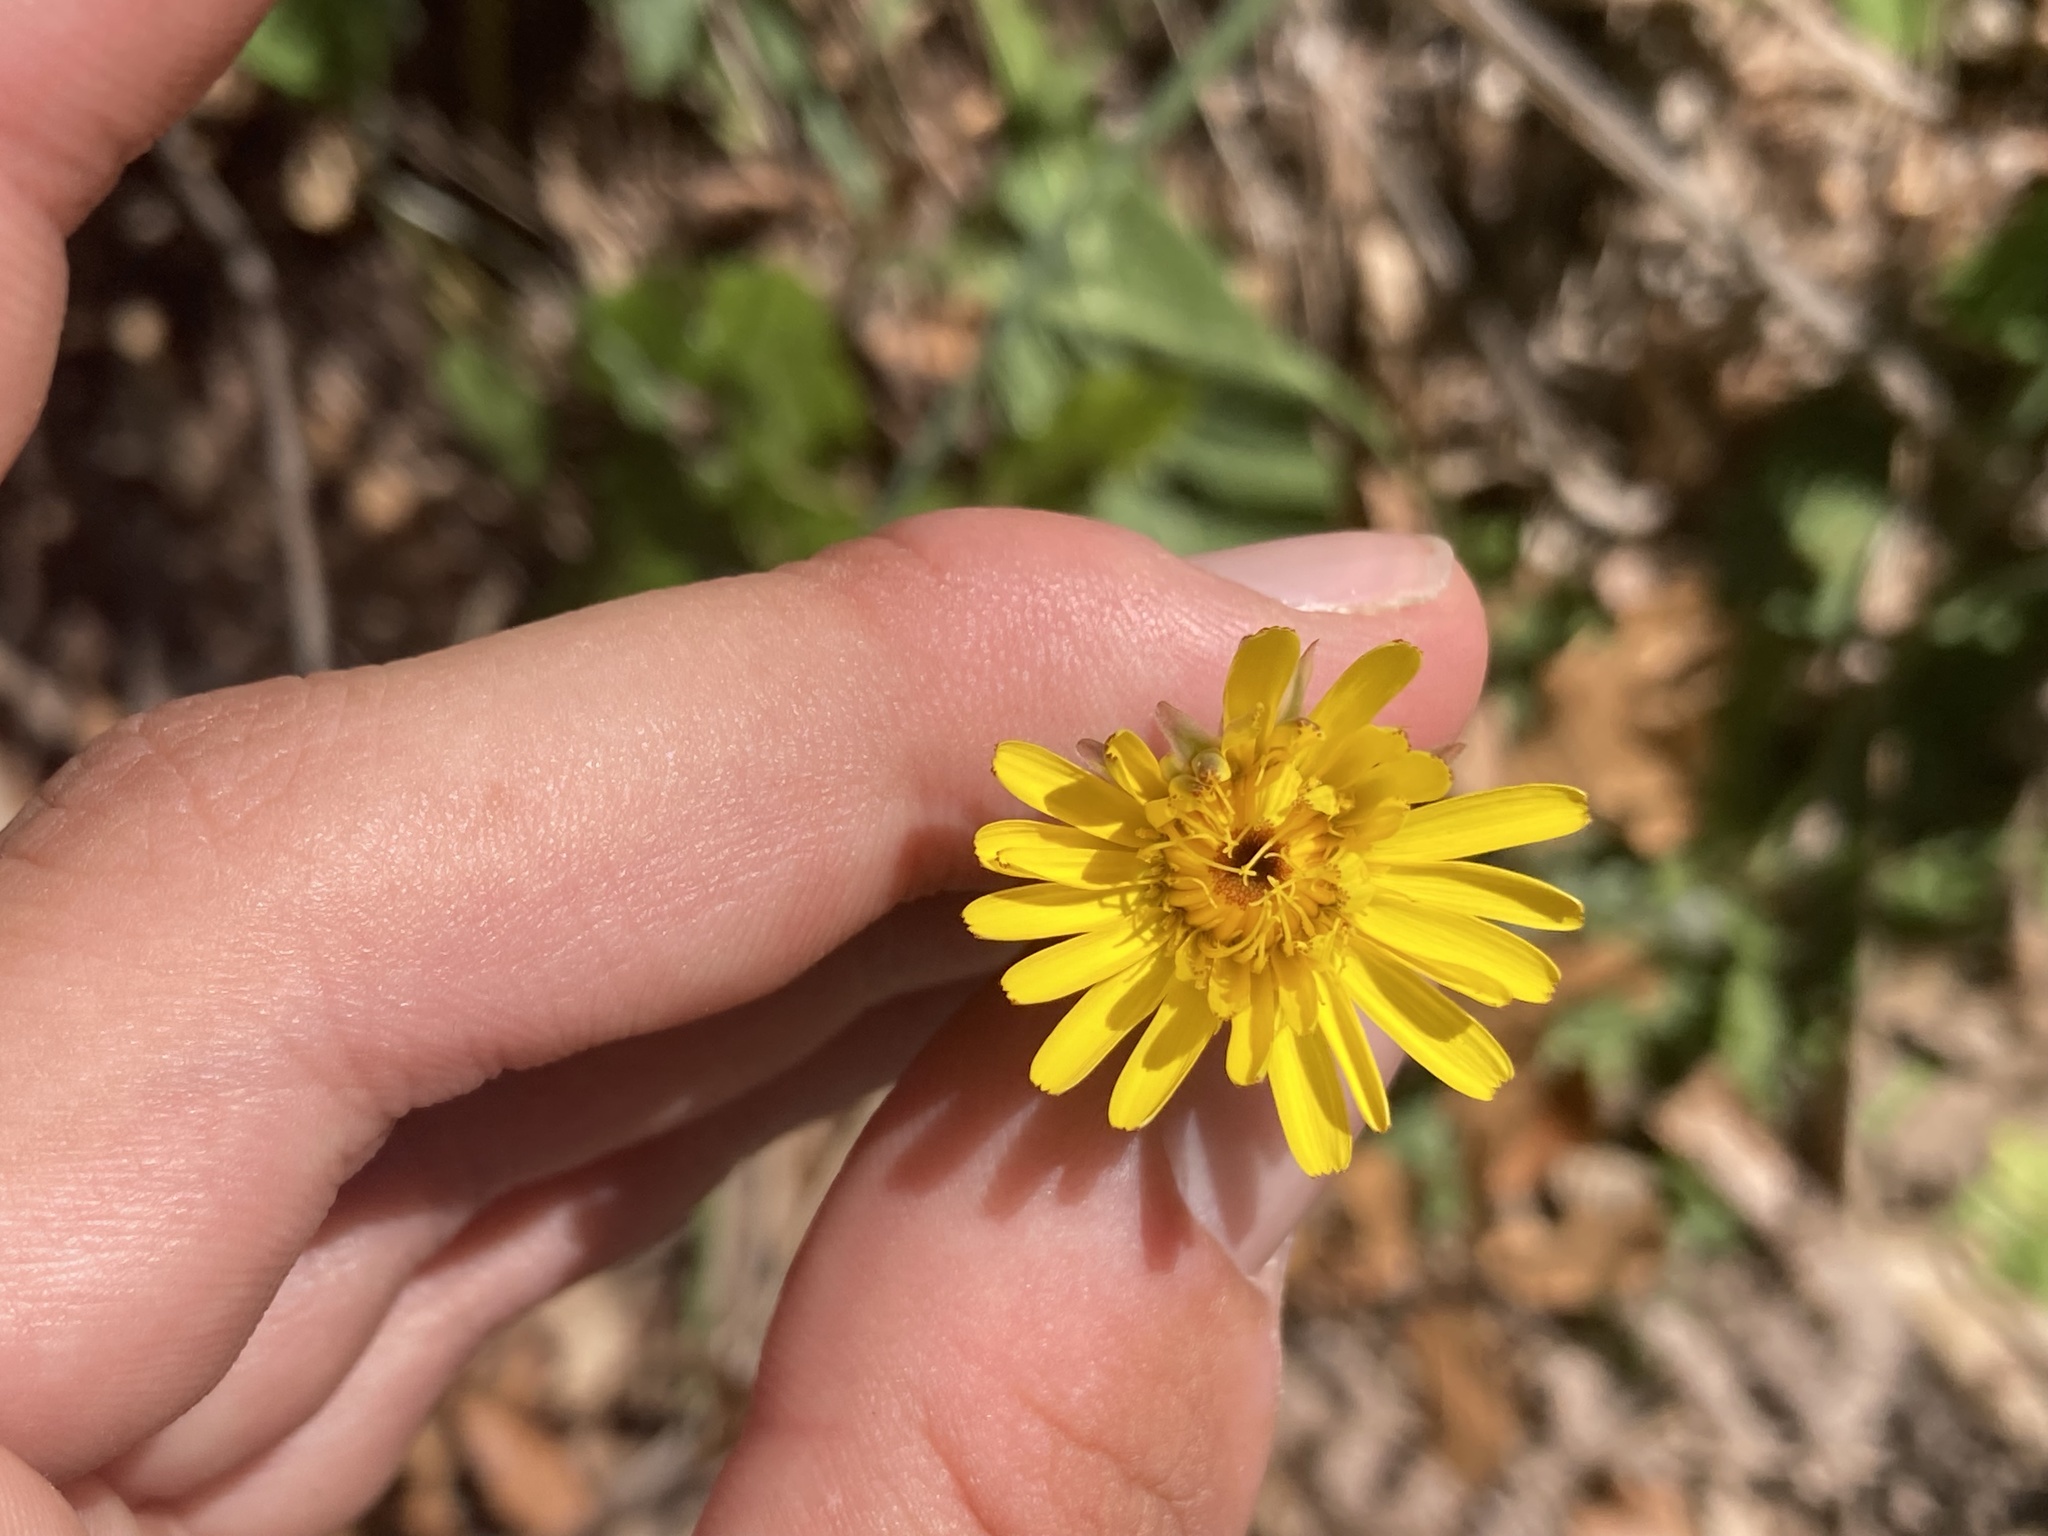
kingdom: Plantae
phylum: Tracheophyta
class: Magnoliopsida
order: Asterales
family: Asteraceae
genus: Hypochaeris
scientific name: Hypochaeris radicata
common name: Flatweed
